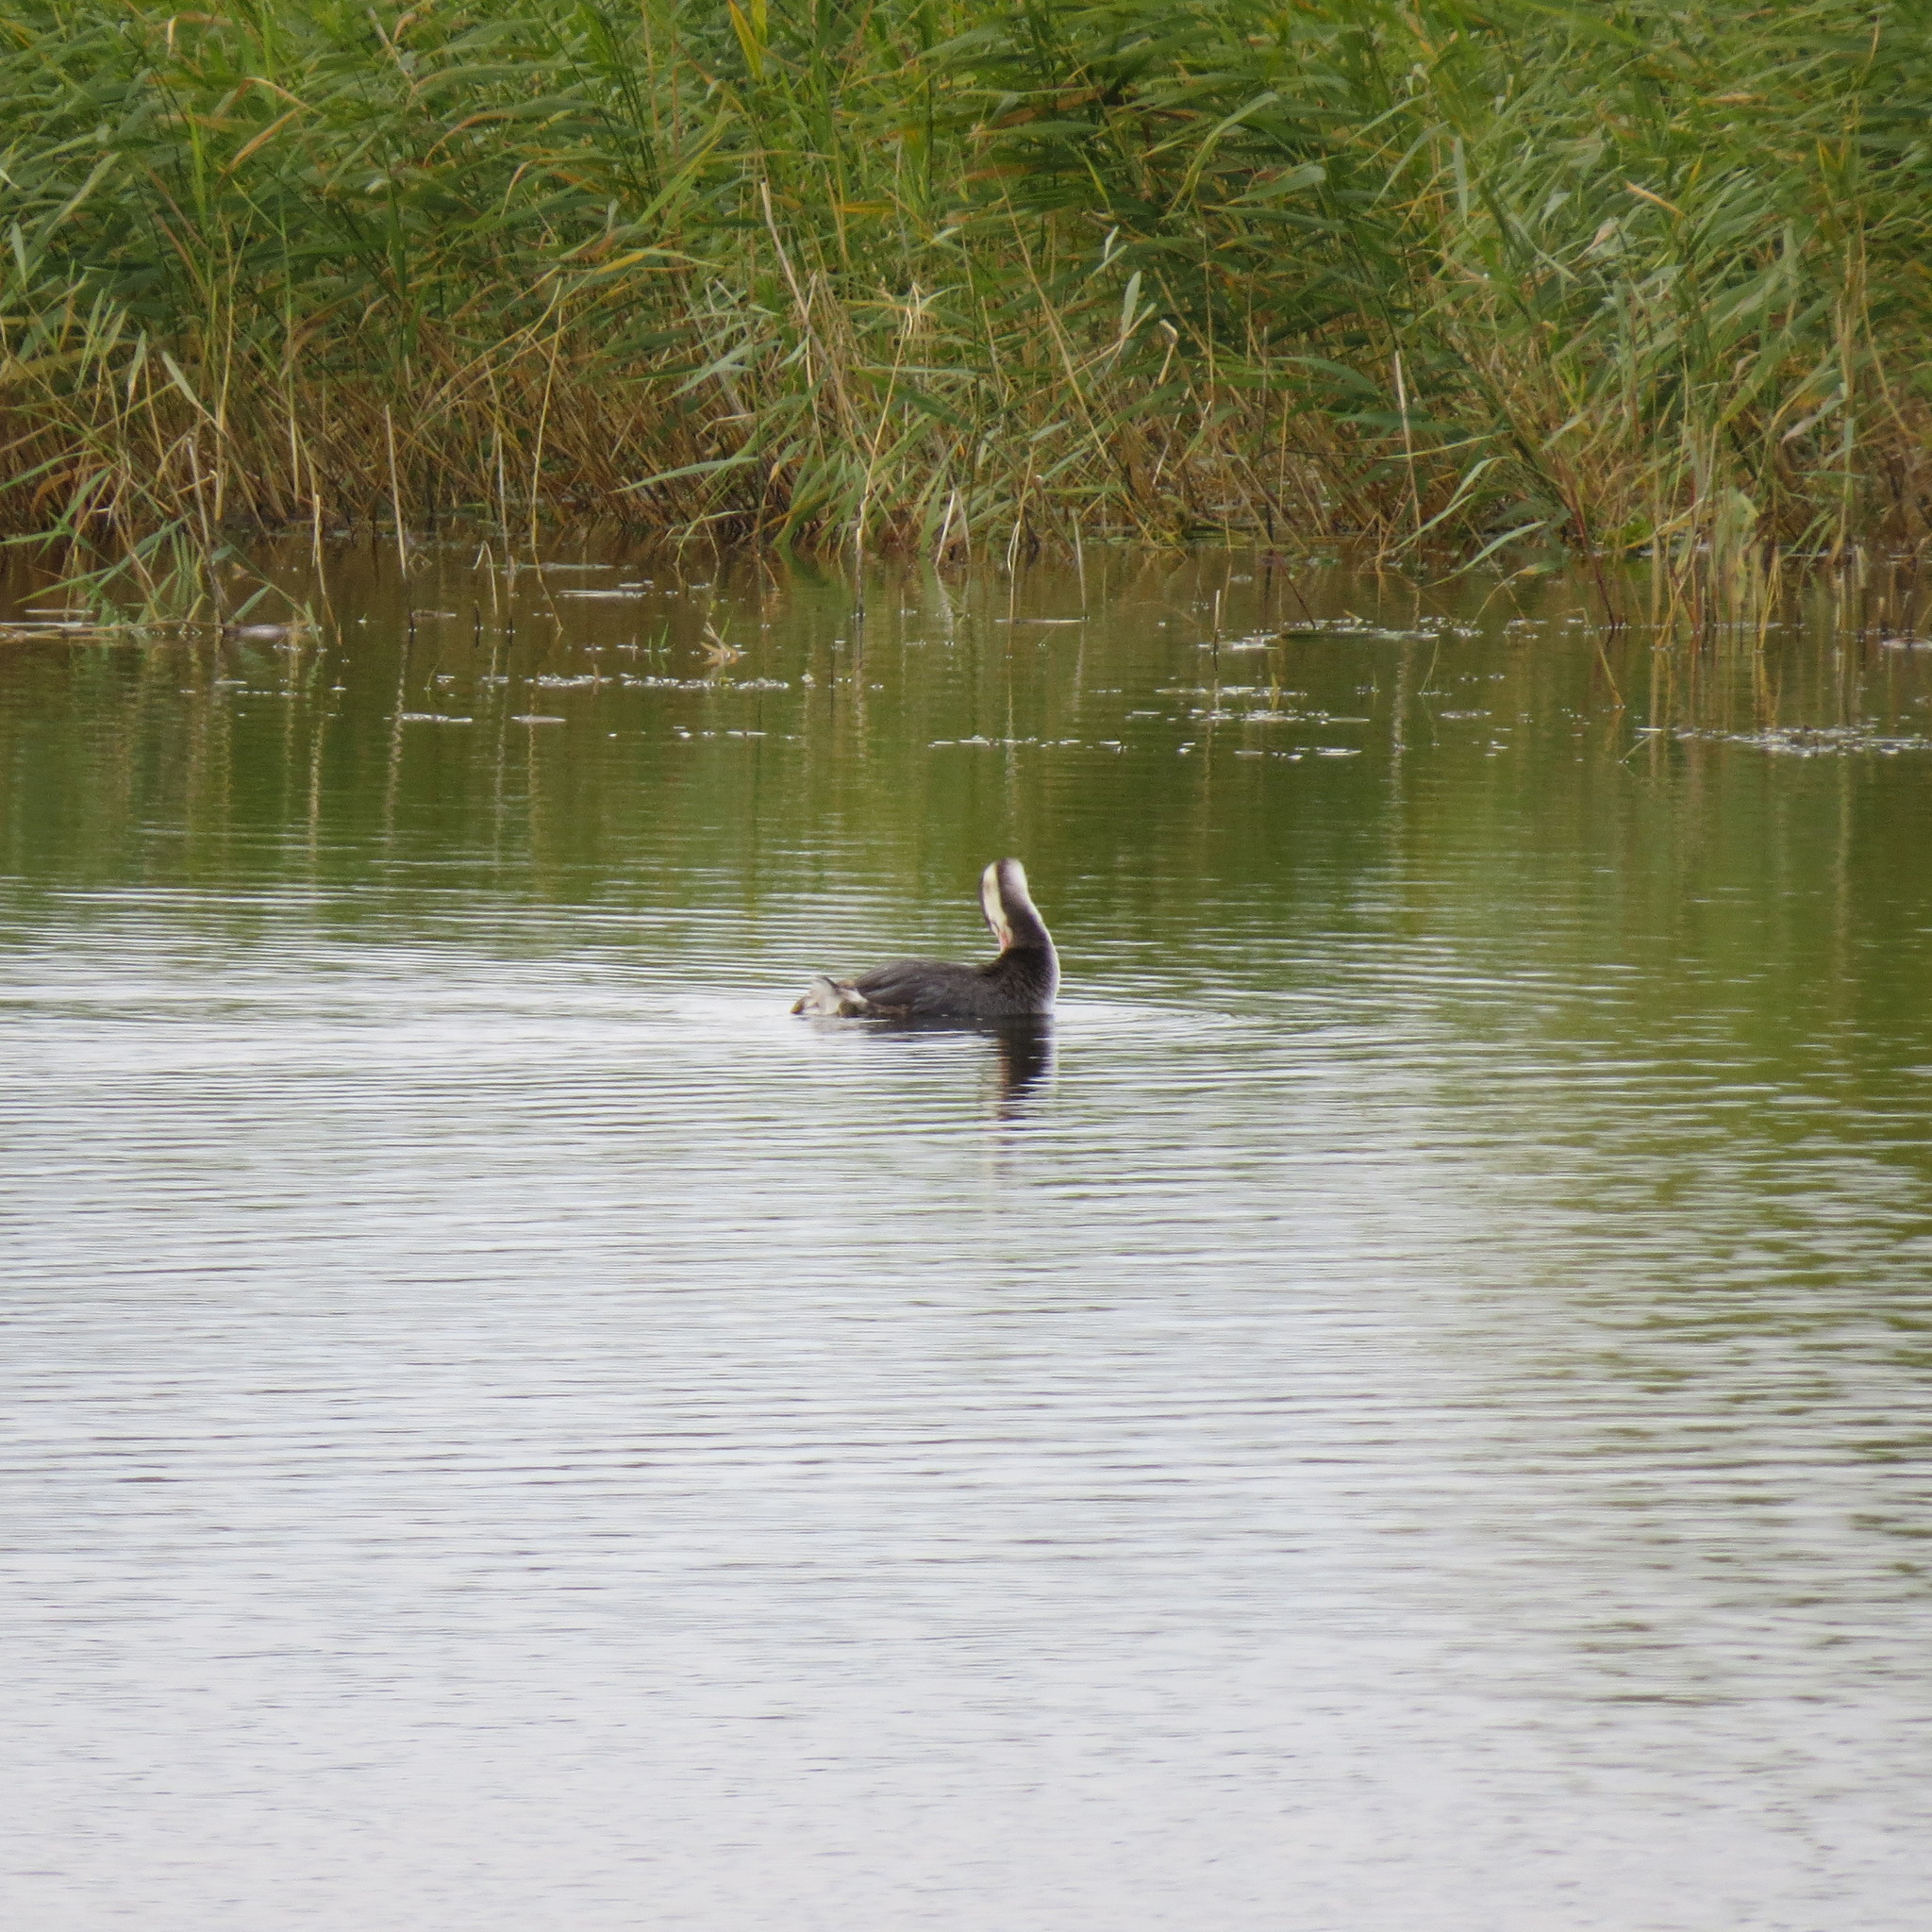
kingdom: Animalia
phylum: Chordata
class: Aves
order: Podicipediformes
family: Podicipedidae
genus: Podiceps
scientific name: Podiceps cristatus
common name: Great crested grebe
